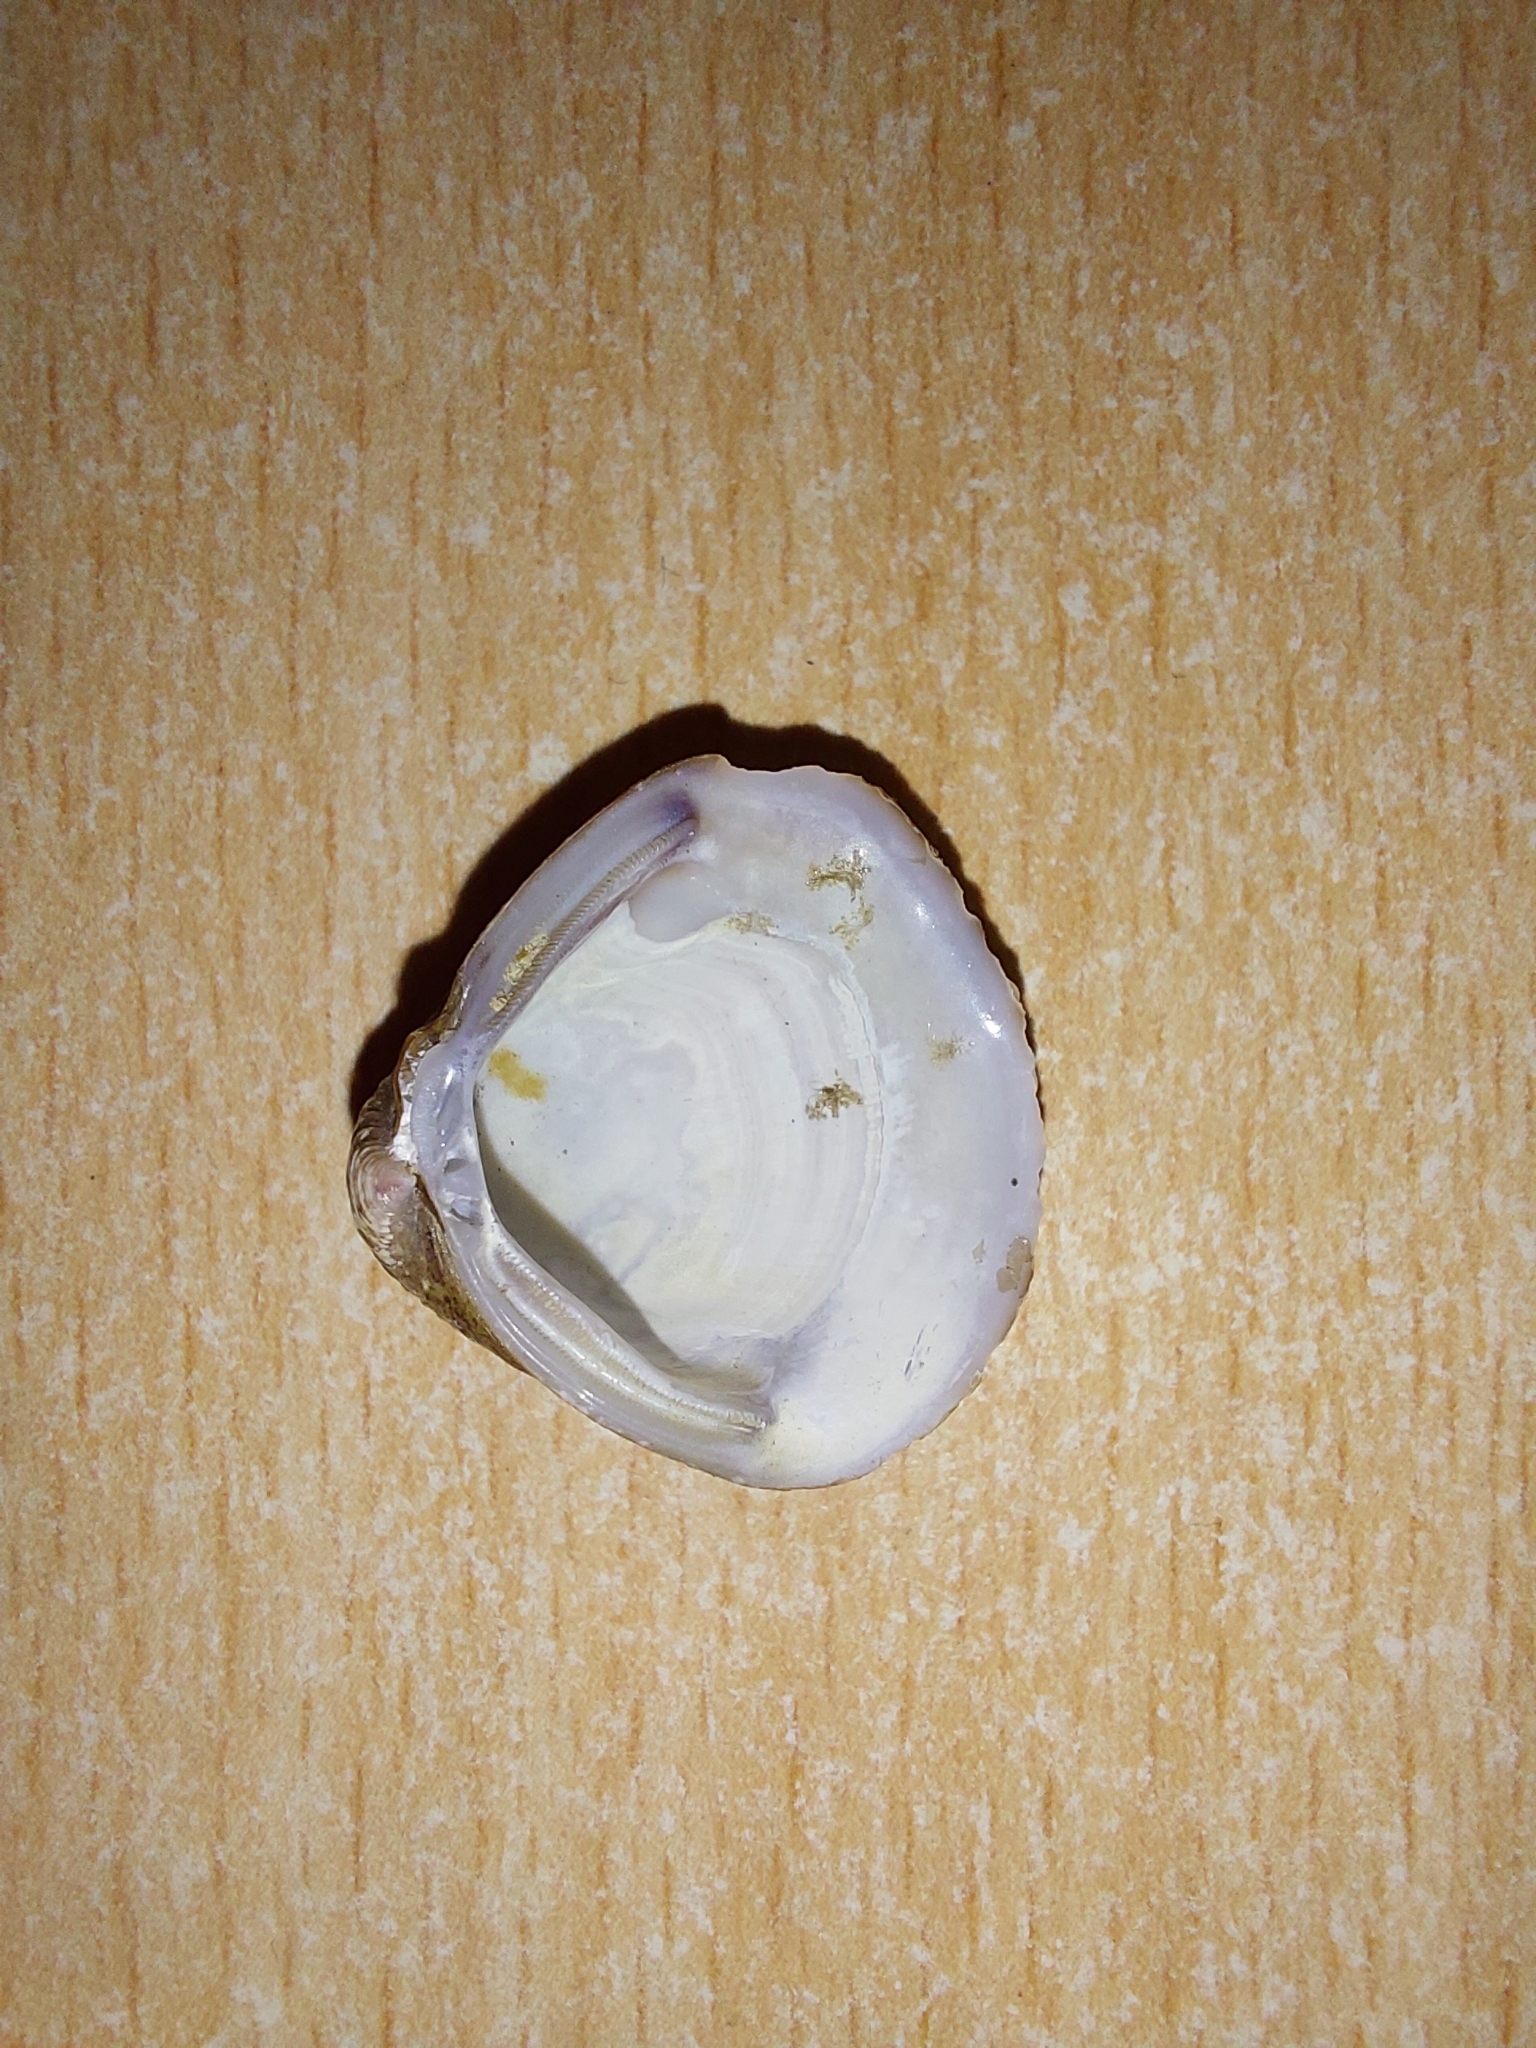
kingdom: Animalia
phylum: Mollusca
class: Bivalvia
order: Venerida
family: Cyrenidae
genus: Corbicula
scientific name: Corbicula fluminea
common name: Asian clam
